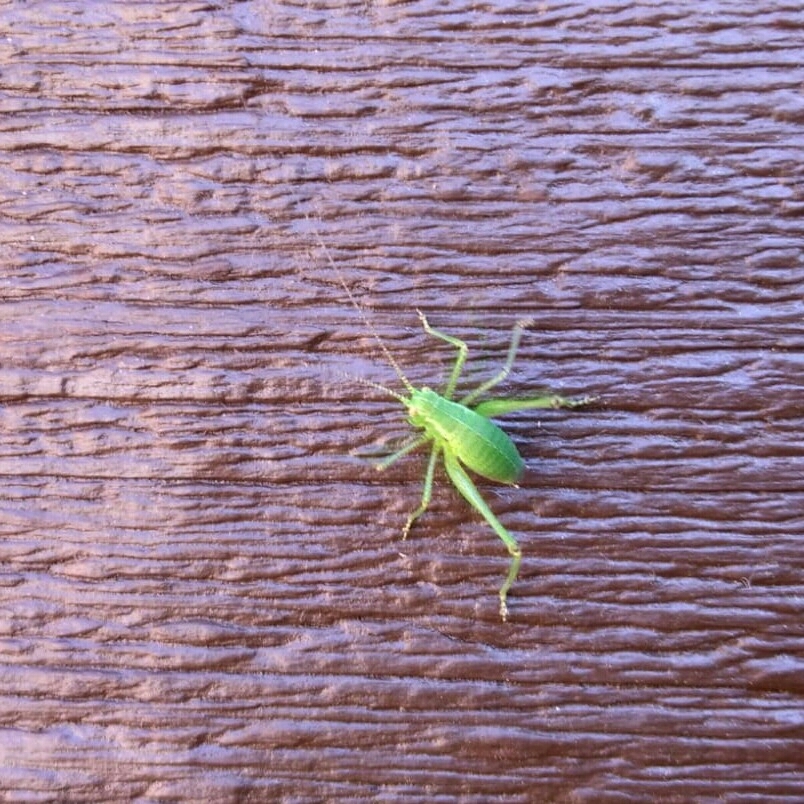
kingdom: Animalia
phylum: Arthropoda
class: Insecta
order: Orthoptera
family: Tettigoniidae
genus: Leptophyes
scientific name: Leptophyes punctatissima
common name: Speckled bush-cricket
